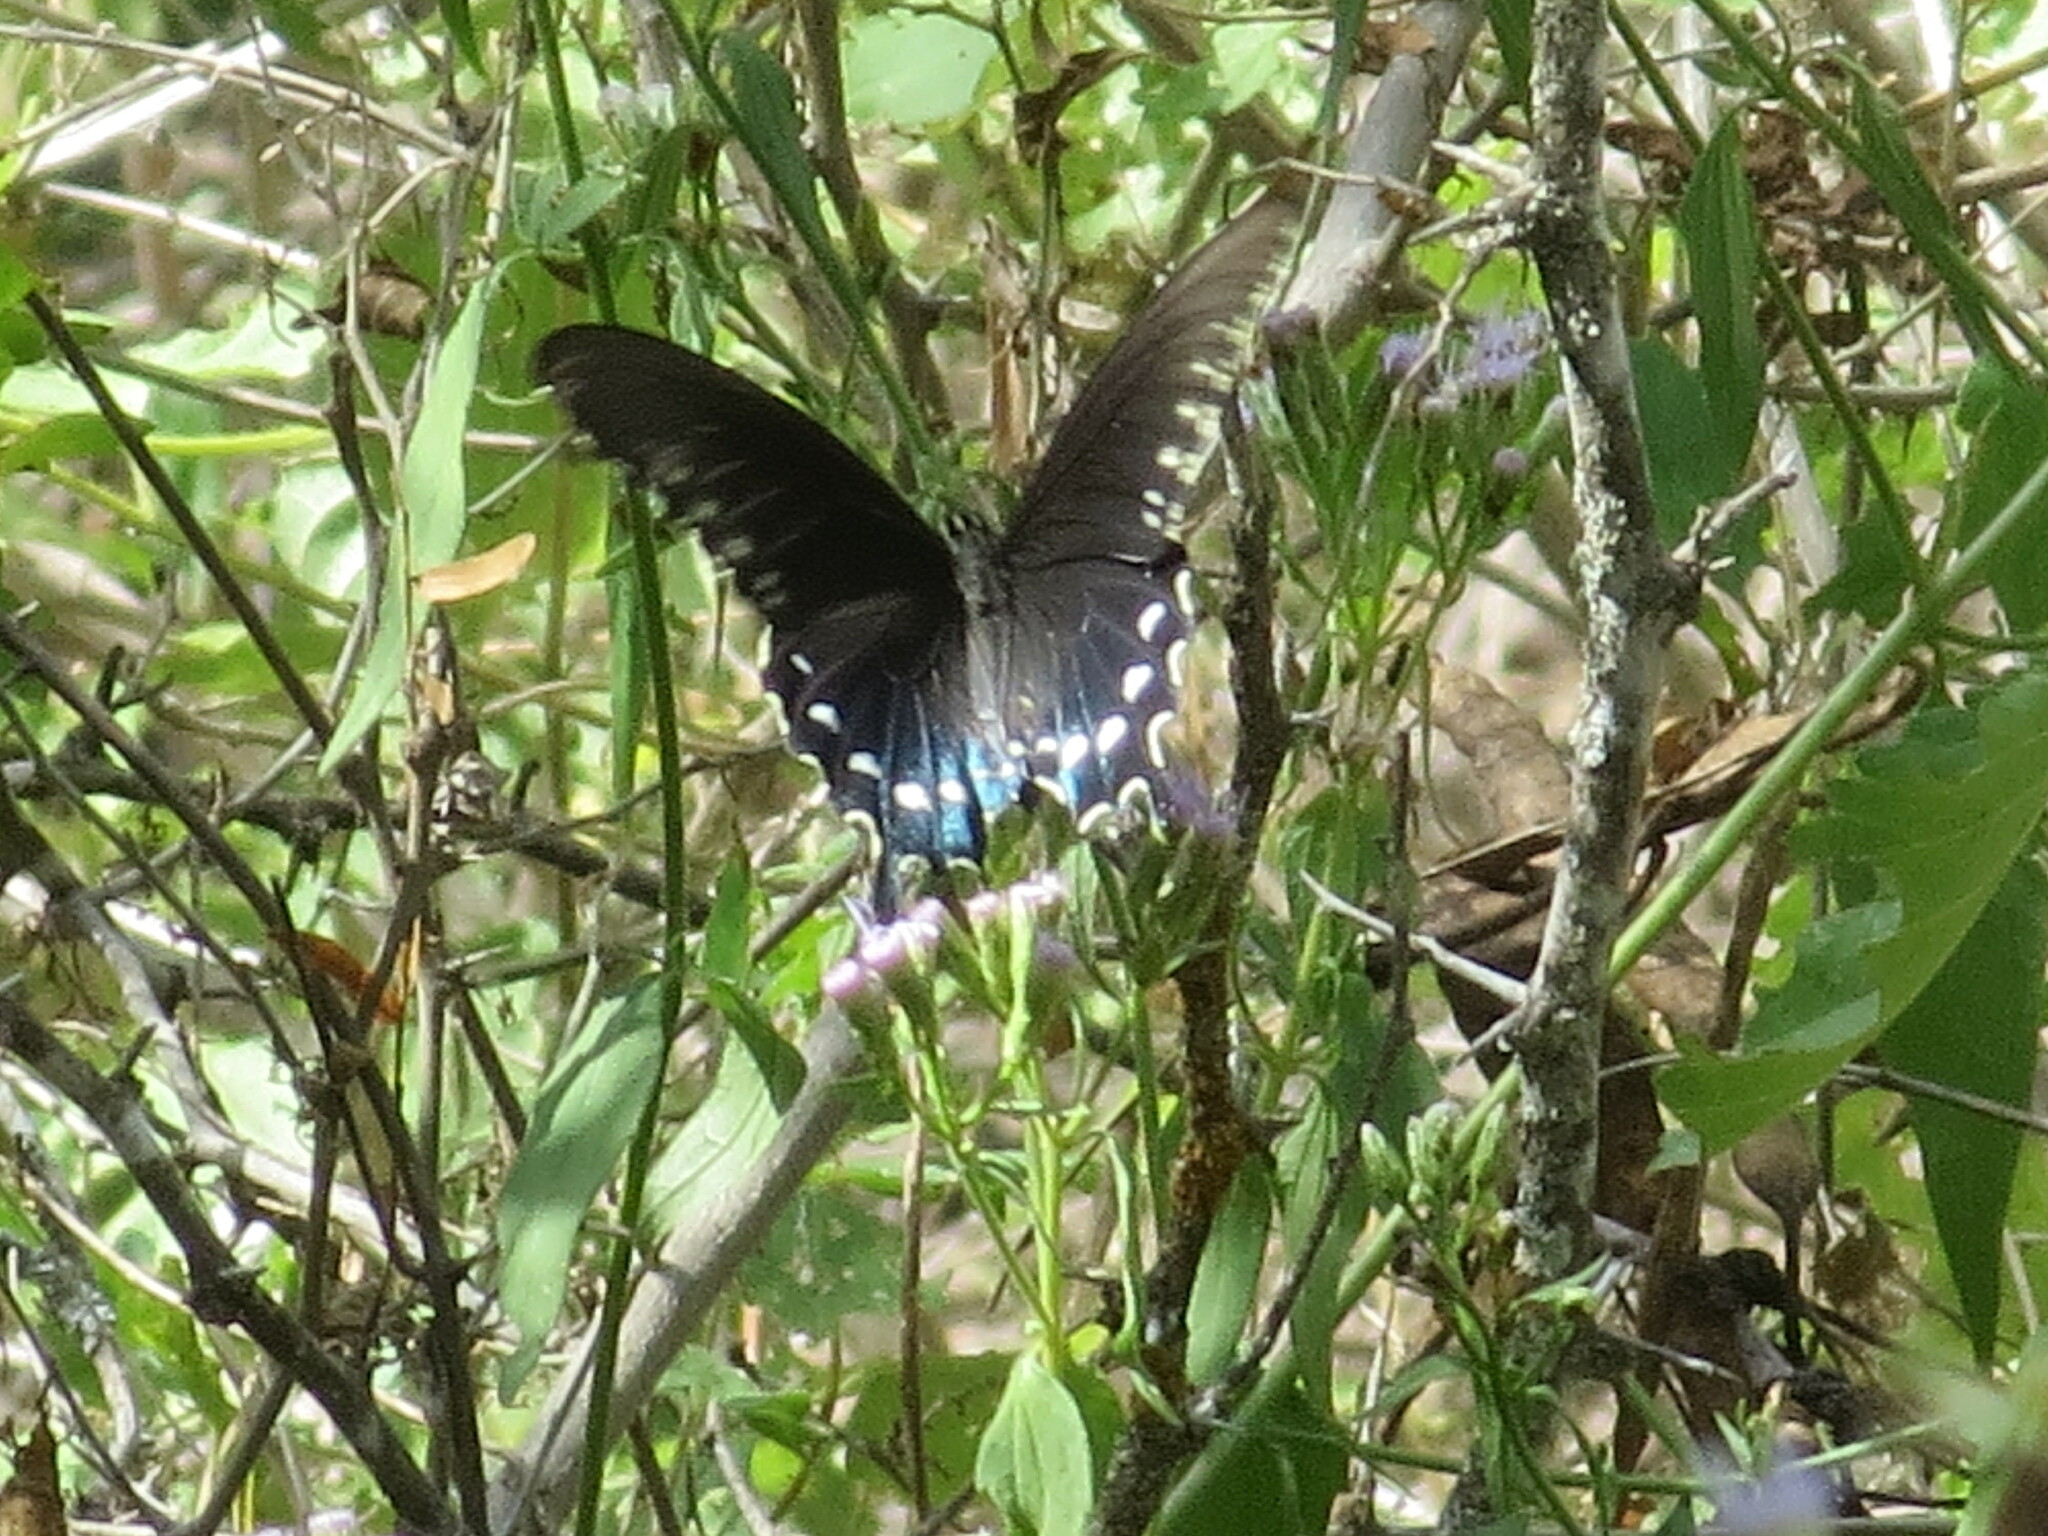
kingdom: Animalia
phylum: Arthropoda
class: Insecta
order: Lepidoptera
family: Papilionidae
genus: Battus
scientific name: Battus philenor
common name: Pipevine swallowtail
